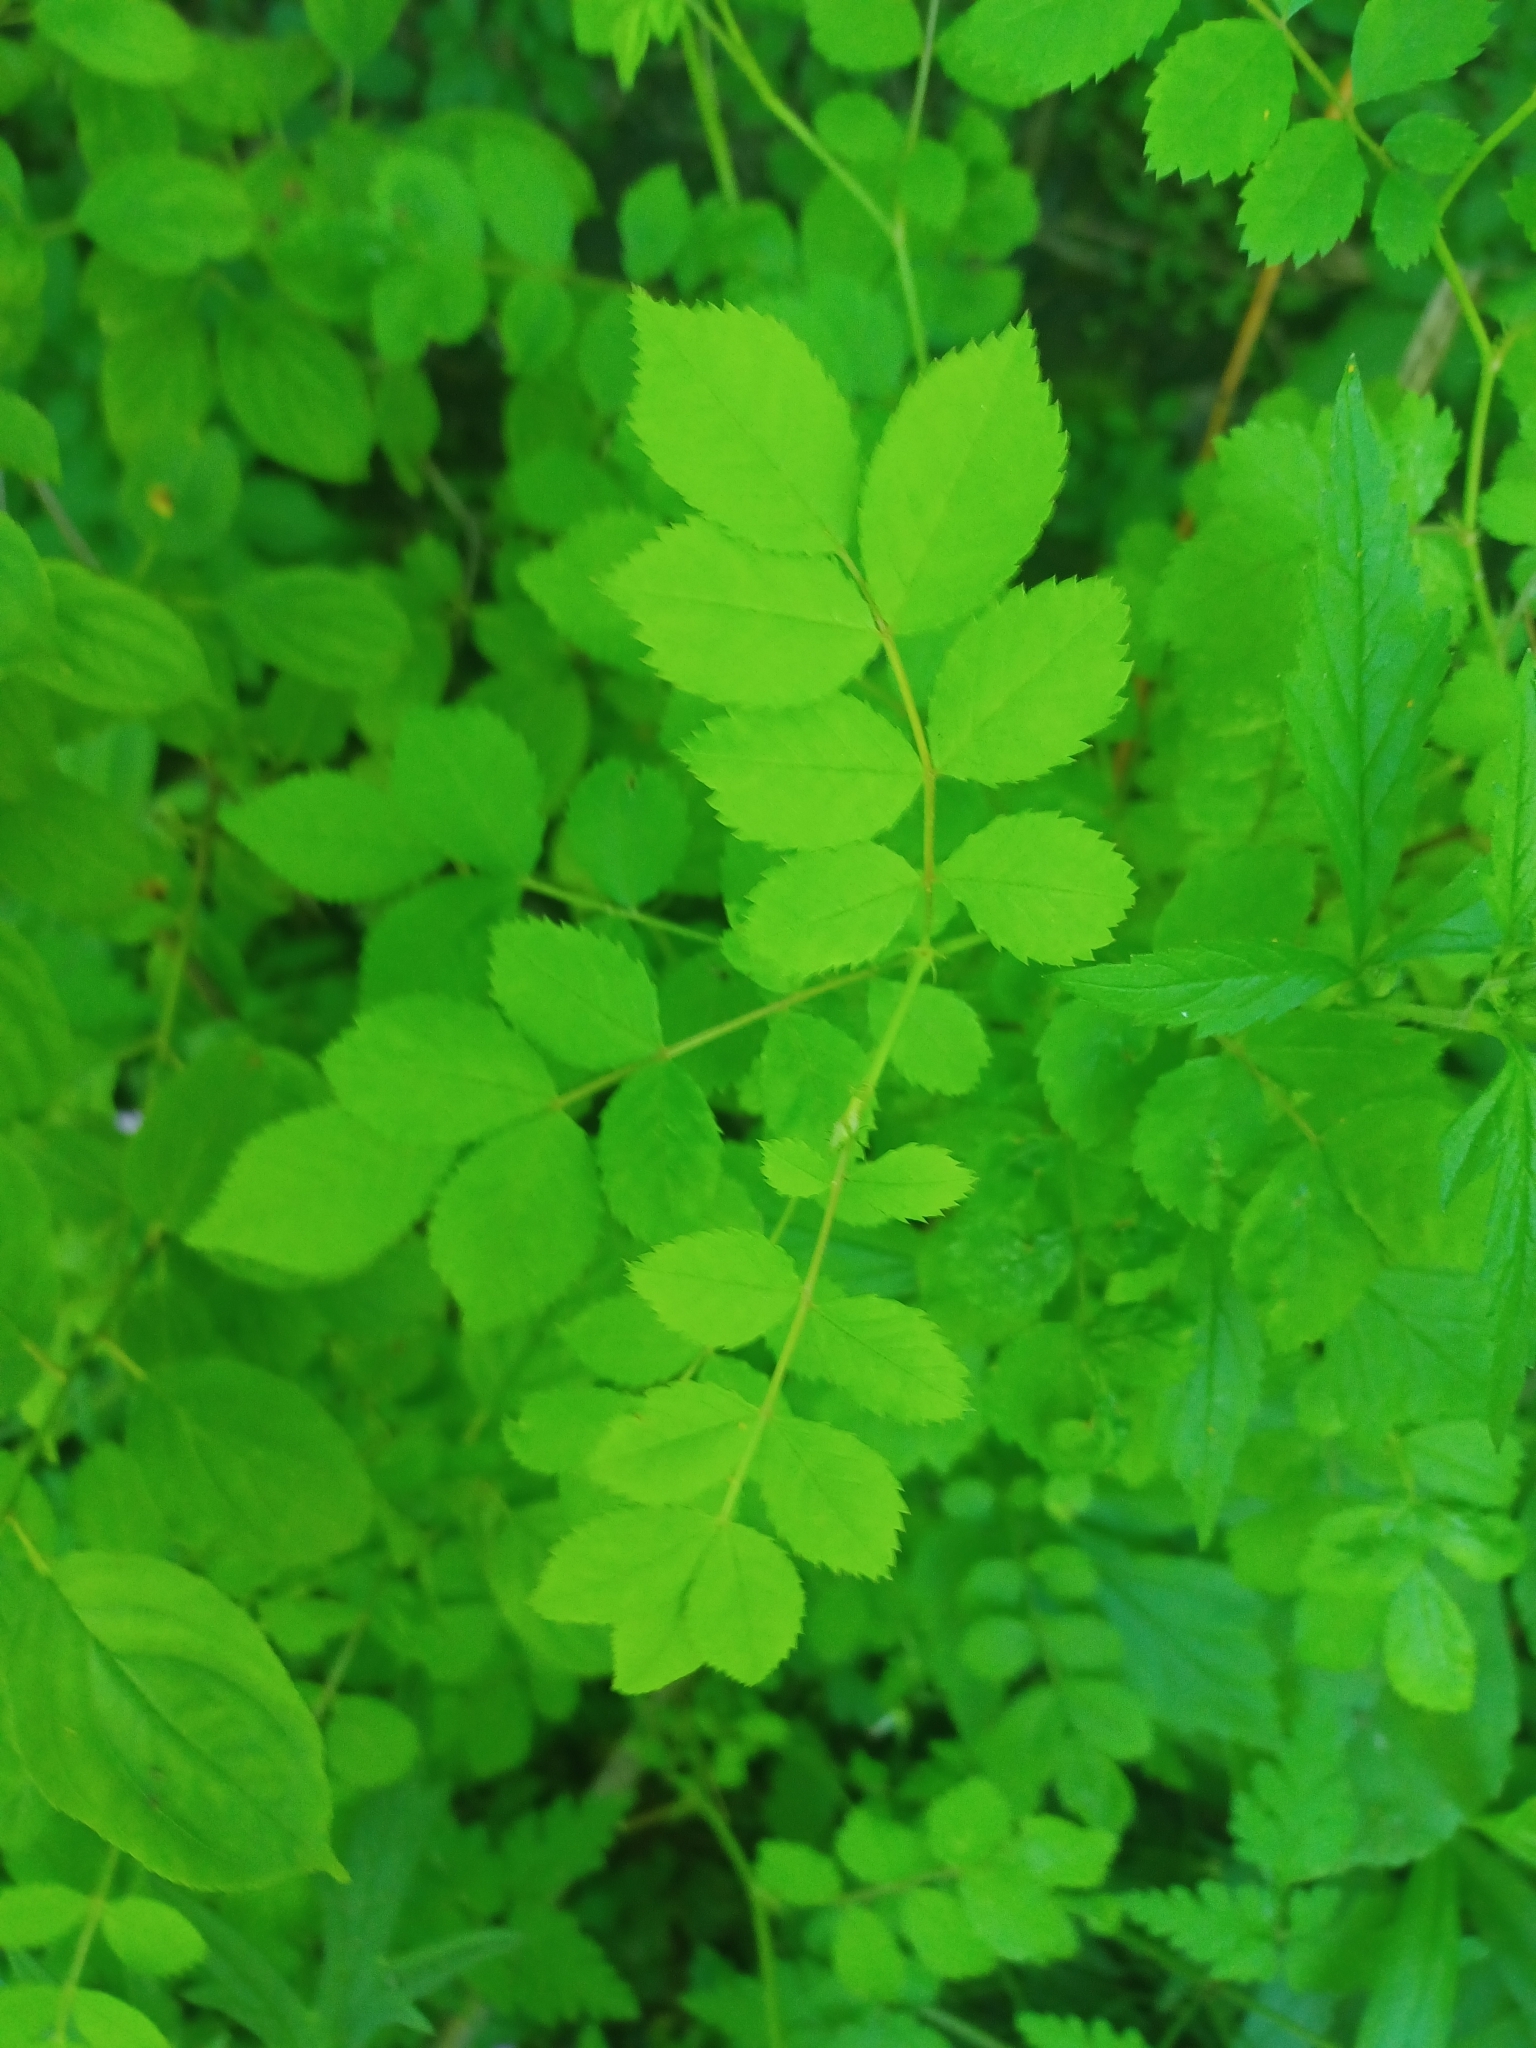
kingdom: Plantae
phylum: Tracheophyta
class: Magnoliopsida
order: Rosales
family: Rosaceae
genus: Rosa
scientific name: Rosa multiflora
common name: Multiflora rose
